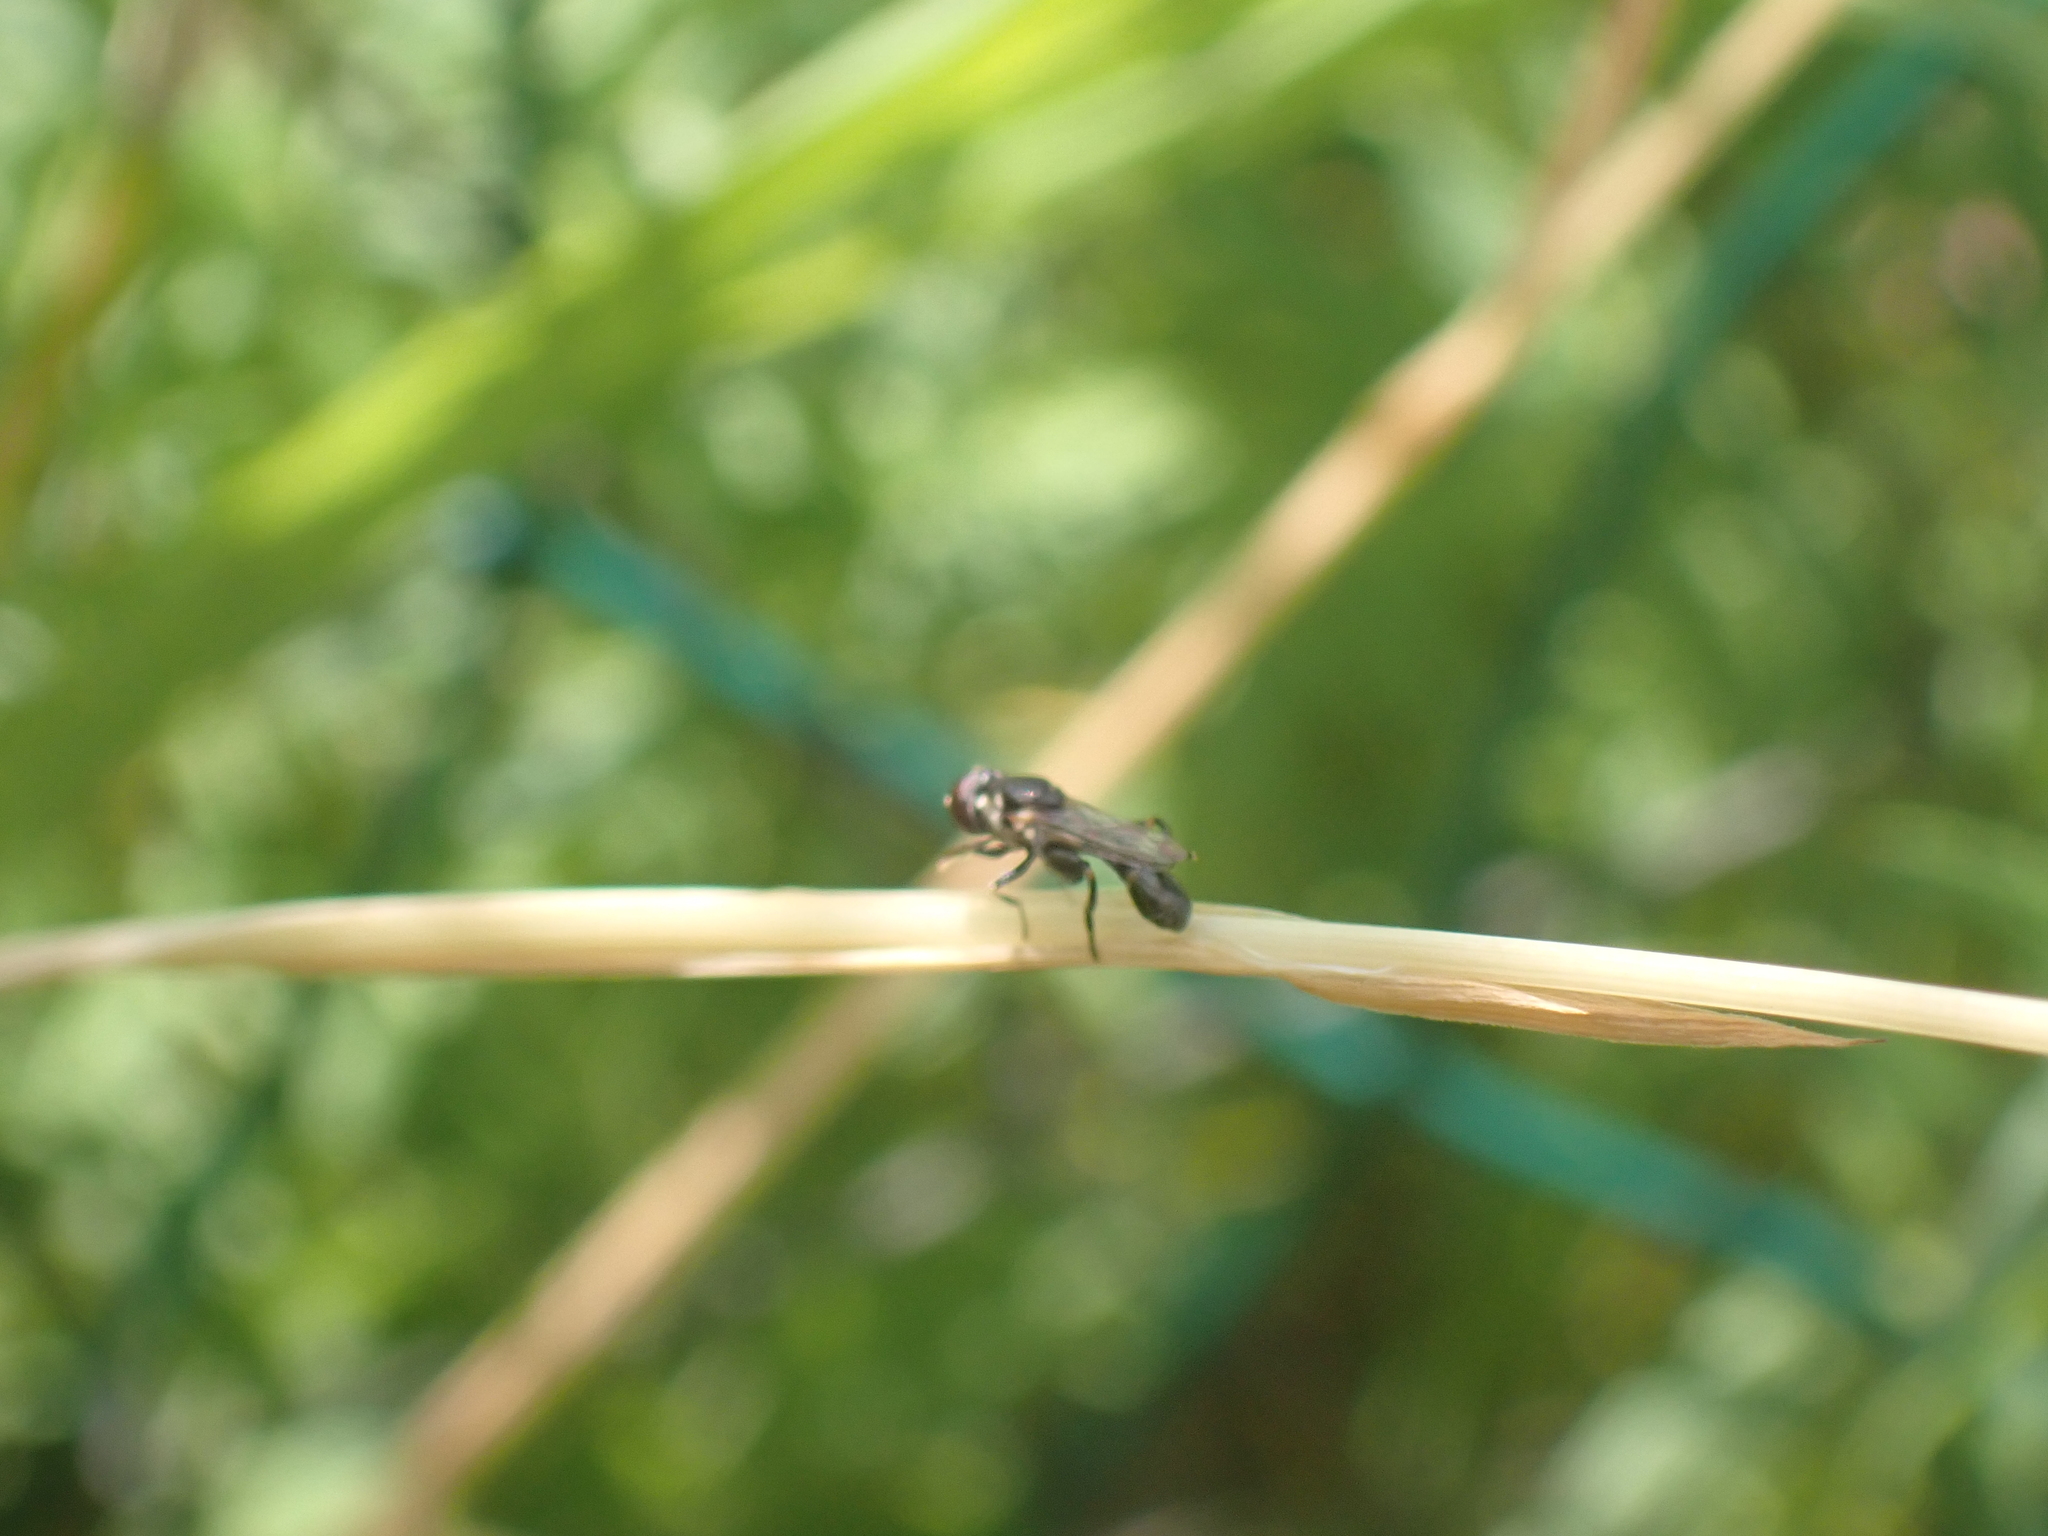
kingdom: Animalia
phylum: Arthropoda
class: Insecta
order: Diptera
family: Syrphidae
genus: Syritta
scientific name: Syritta pipiens
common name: Hover fly
